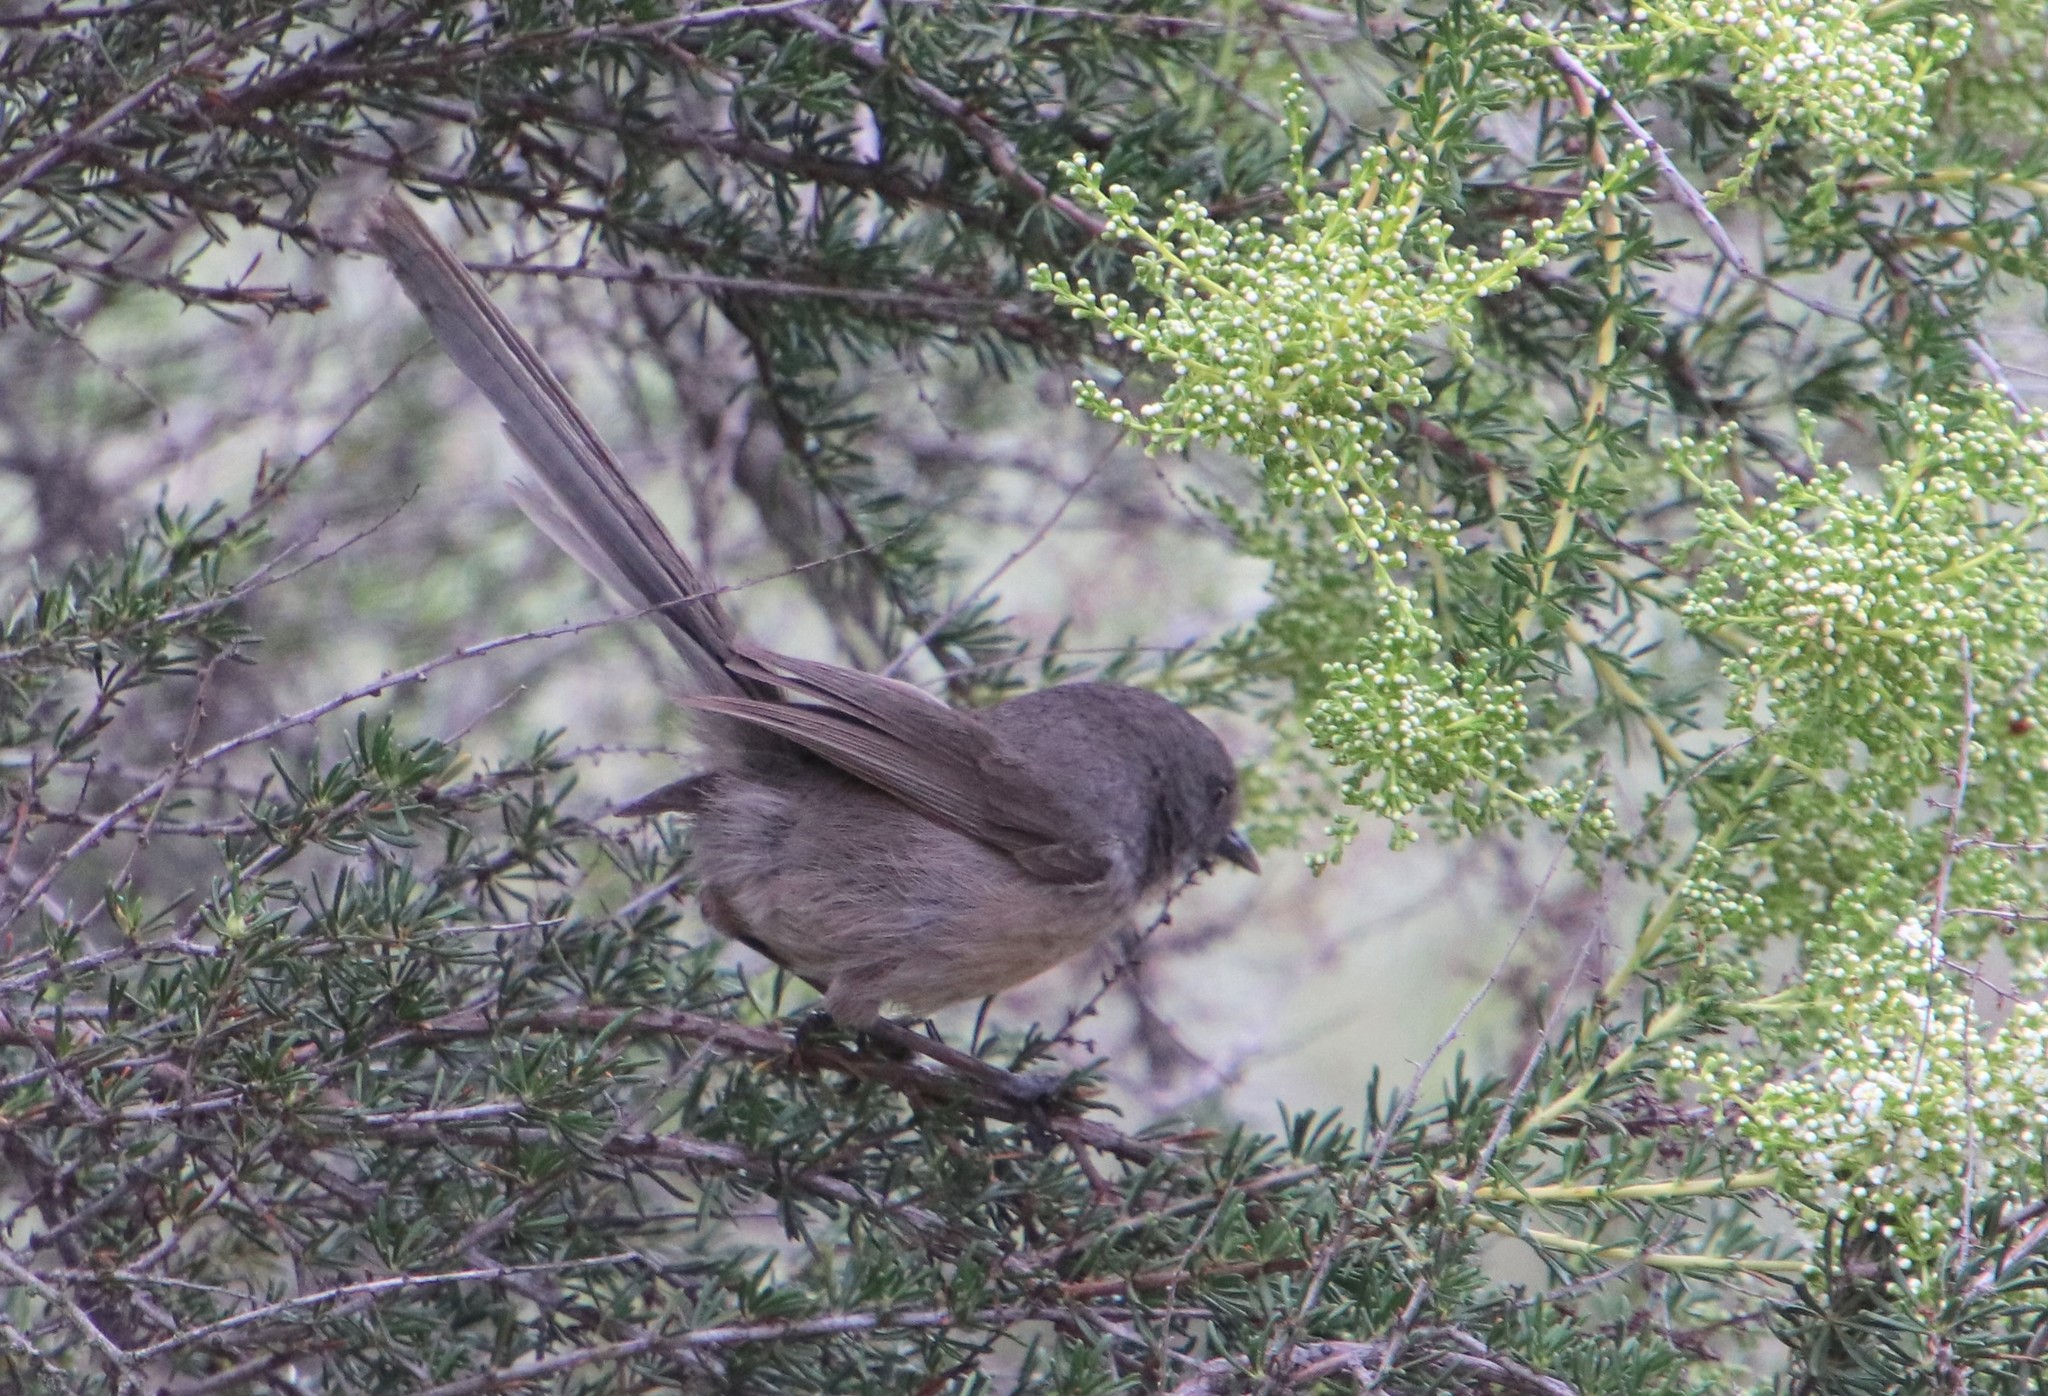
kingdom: Animalia
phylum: Chordata
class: Aves
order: Passeriformes
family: Sylviidae
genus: Chamaea
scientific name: Chamaea fasciata
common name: Wrentit
